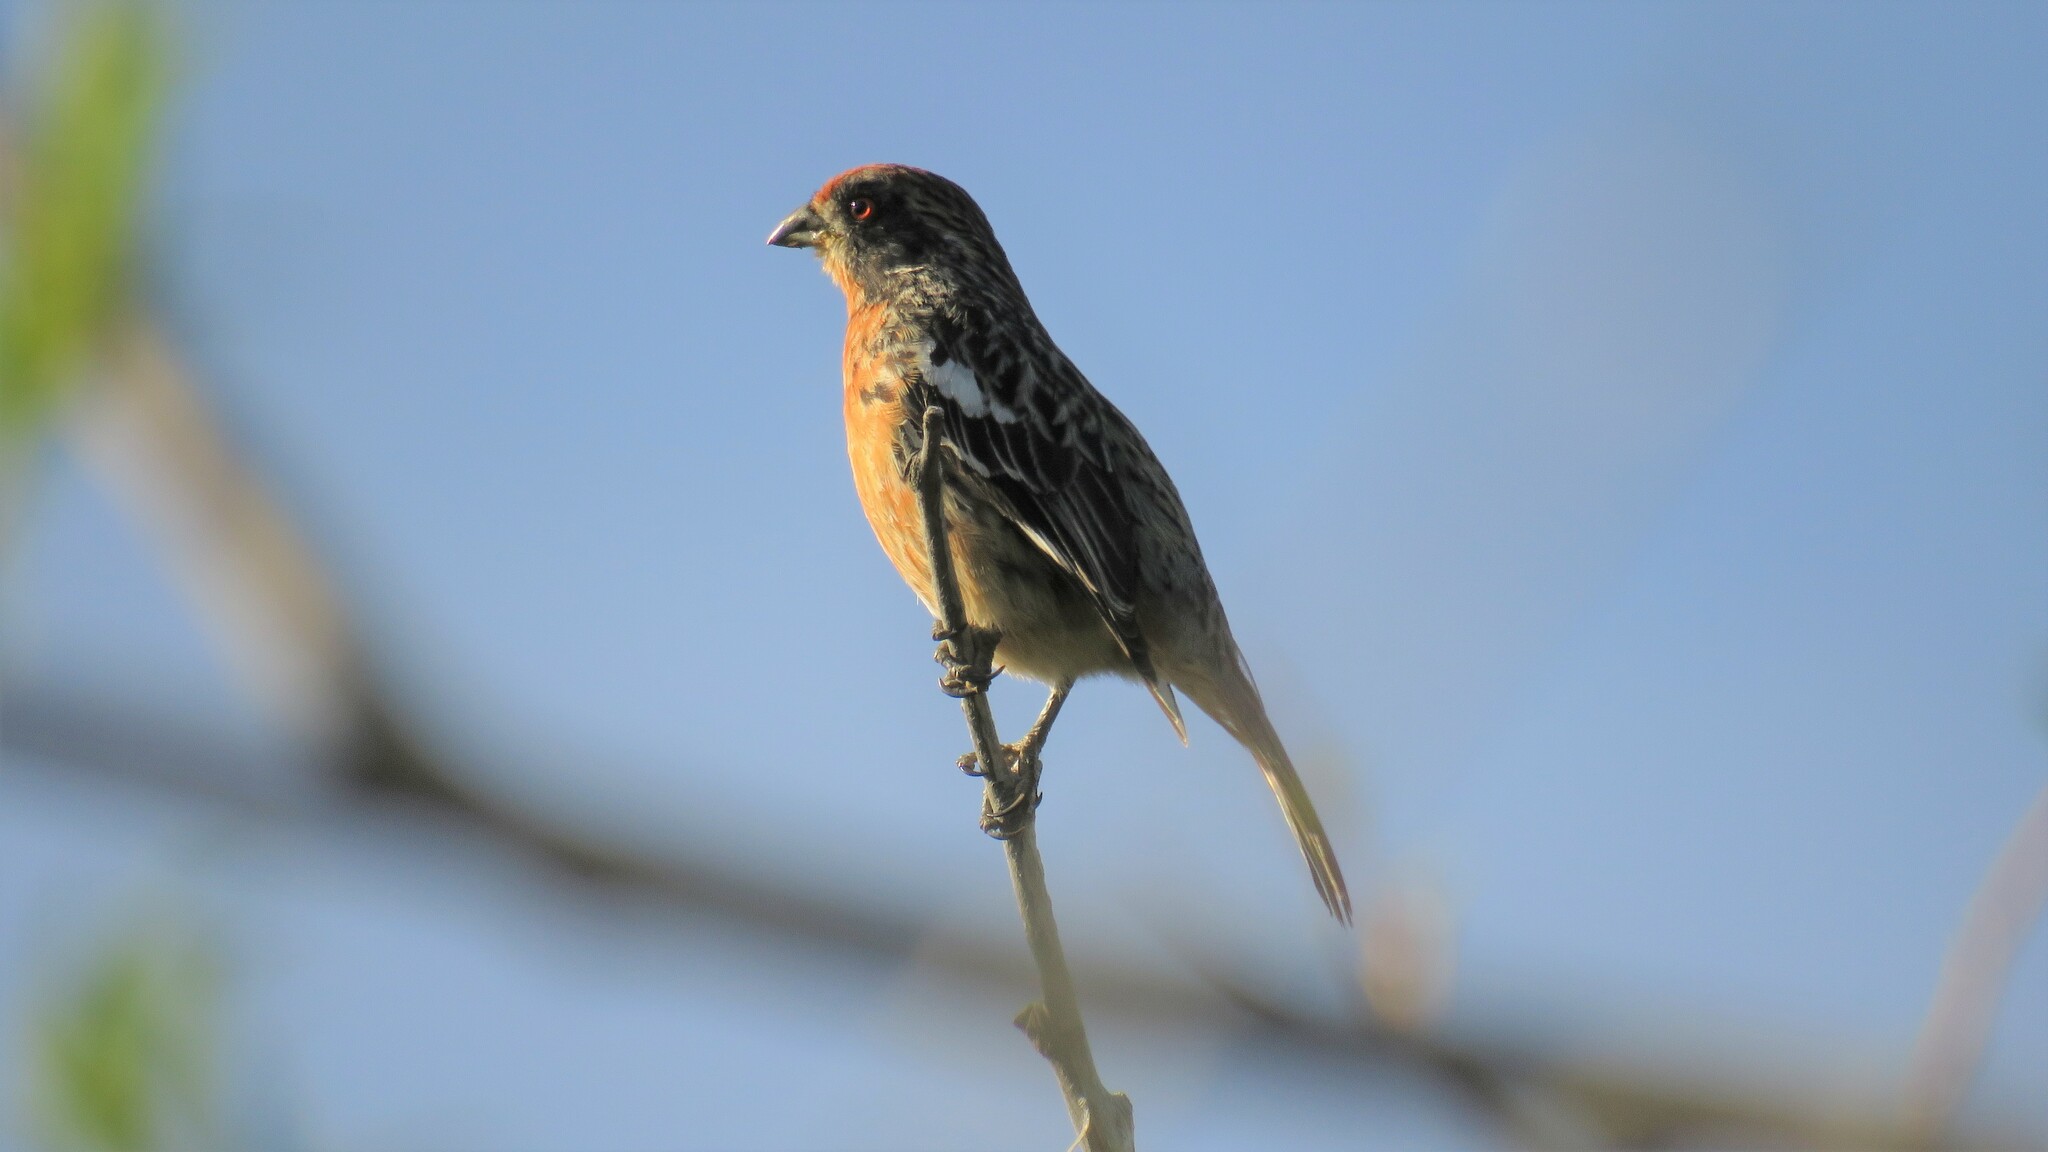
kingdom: Animalia
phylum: Chordata
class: Aves
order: Passeriformes
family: Cotingidae
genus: Phytotoma
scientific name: Phytotoma rara
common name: Rufous-tailed plantcutter
